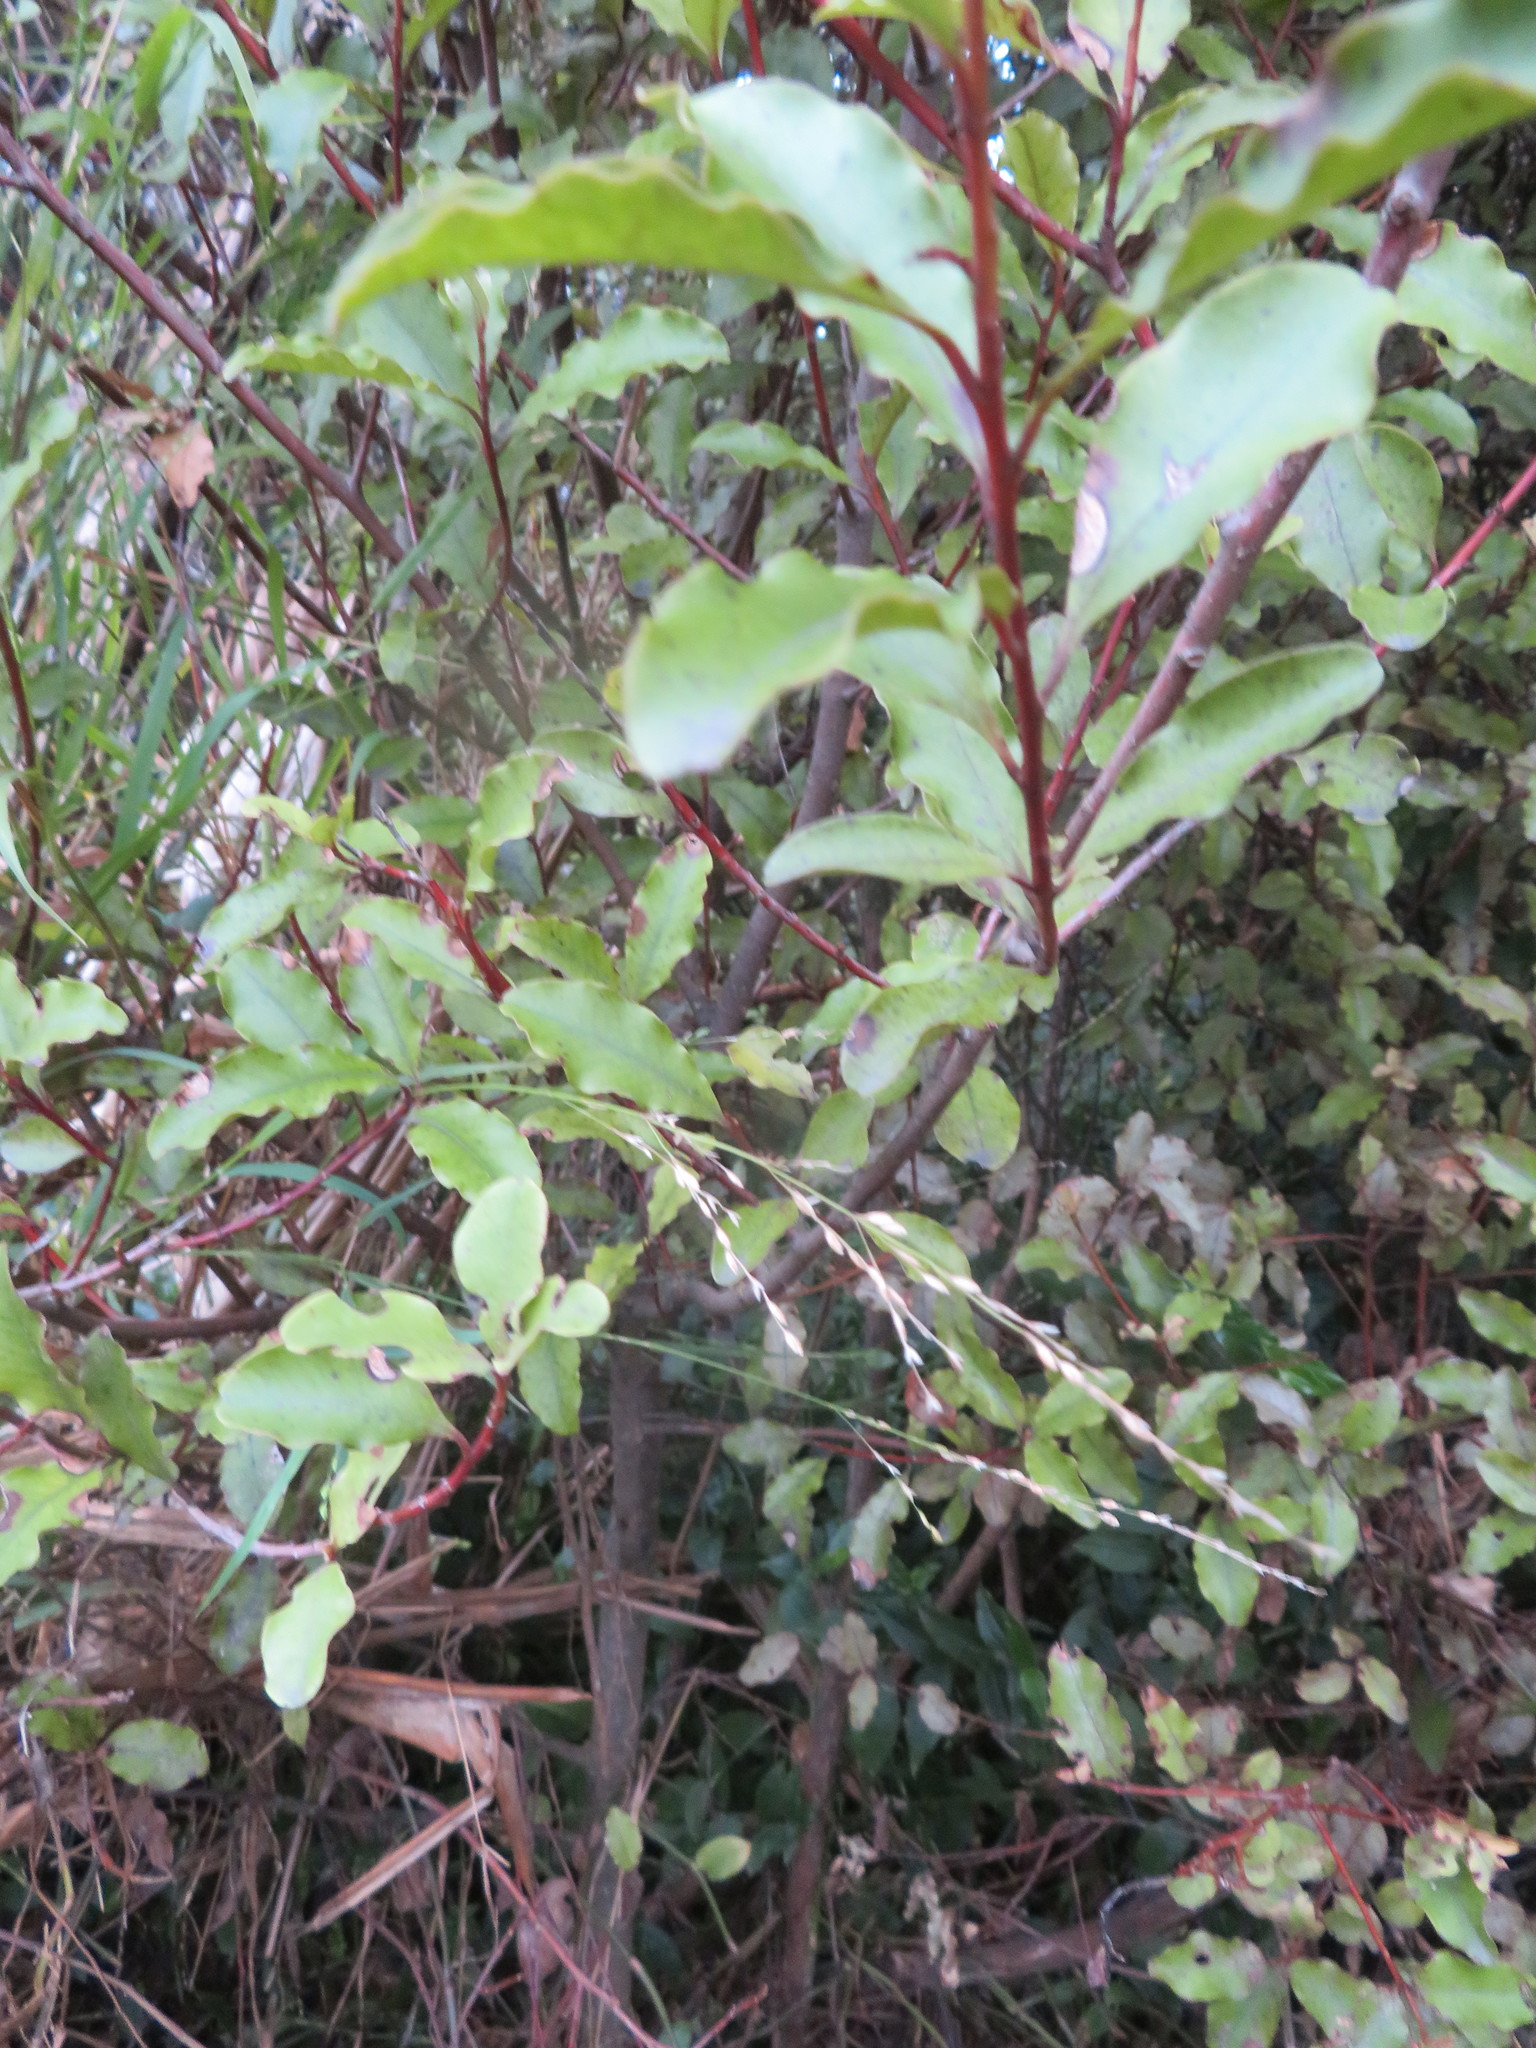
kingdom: Plantae
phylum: Tracheophyta
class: Liliopsida
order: Poales
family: Poaceae
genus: Ehrharta
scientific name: Ehrharta erecta
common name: Panic veldtgrass
